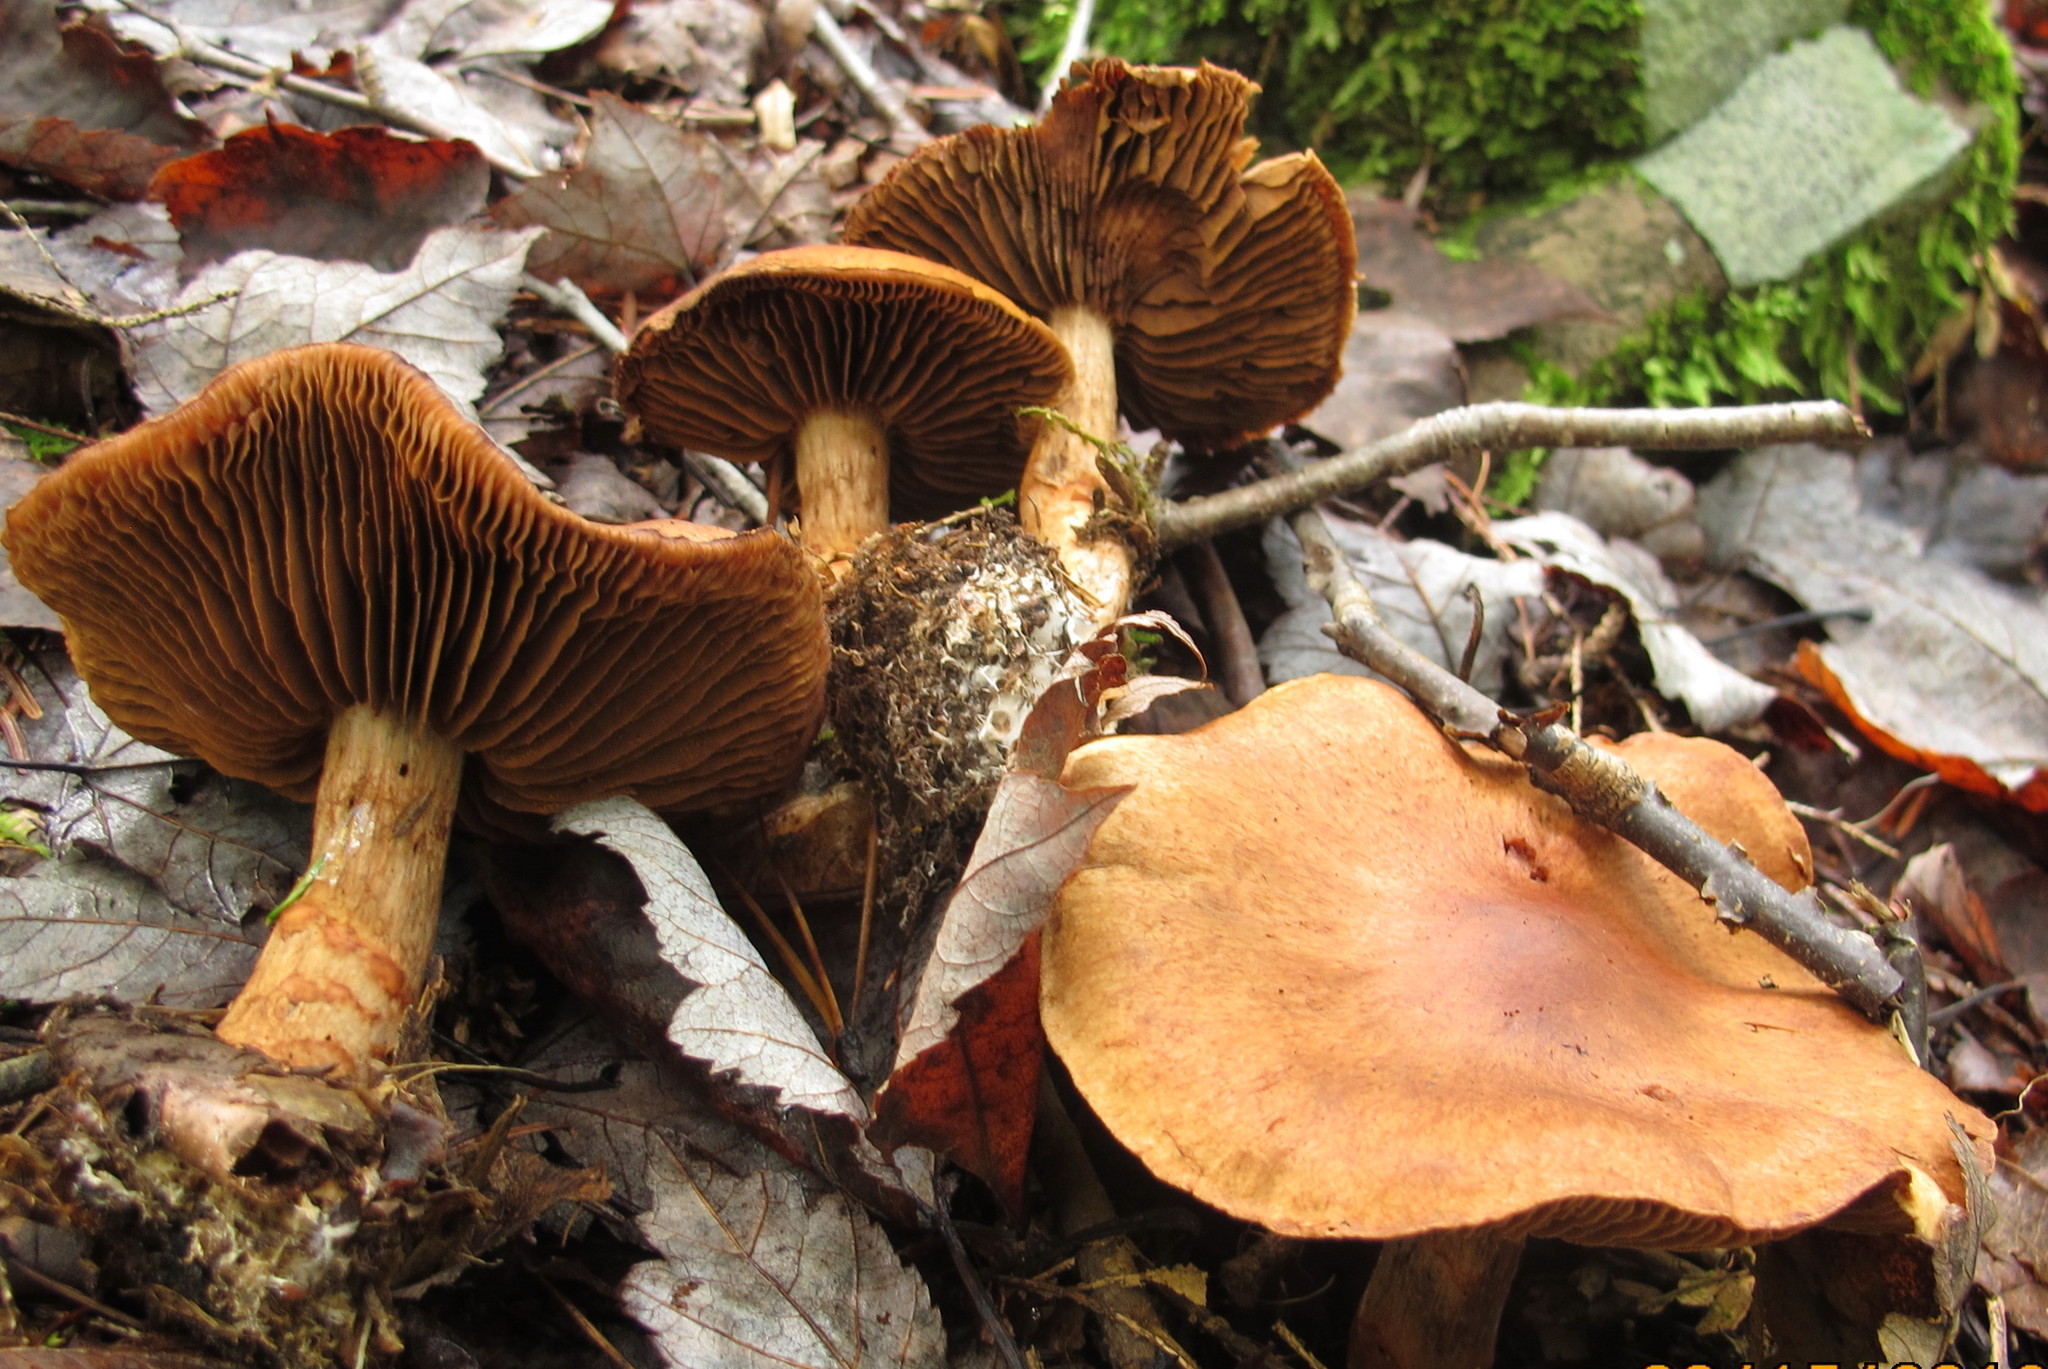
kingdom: Fungi
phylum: Basidiomycota
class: Agaricomycetes
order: Agaricales
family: Cortinariaceae
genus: Cortinarius
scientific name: Cortinarius armillatus
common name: Red banded webcap
